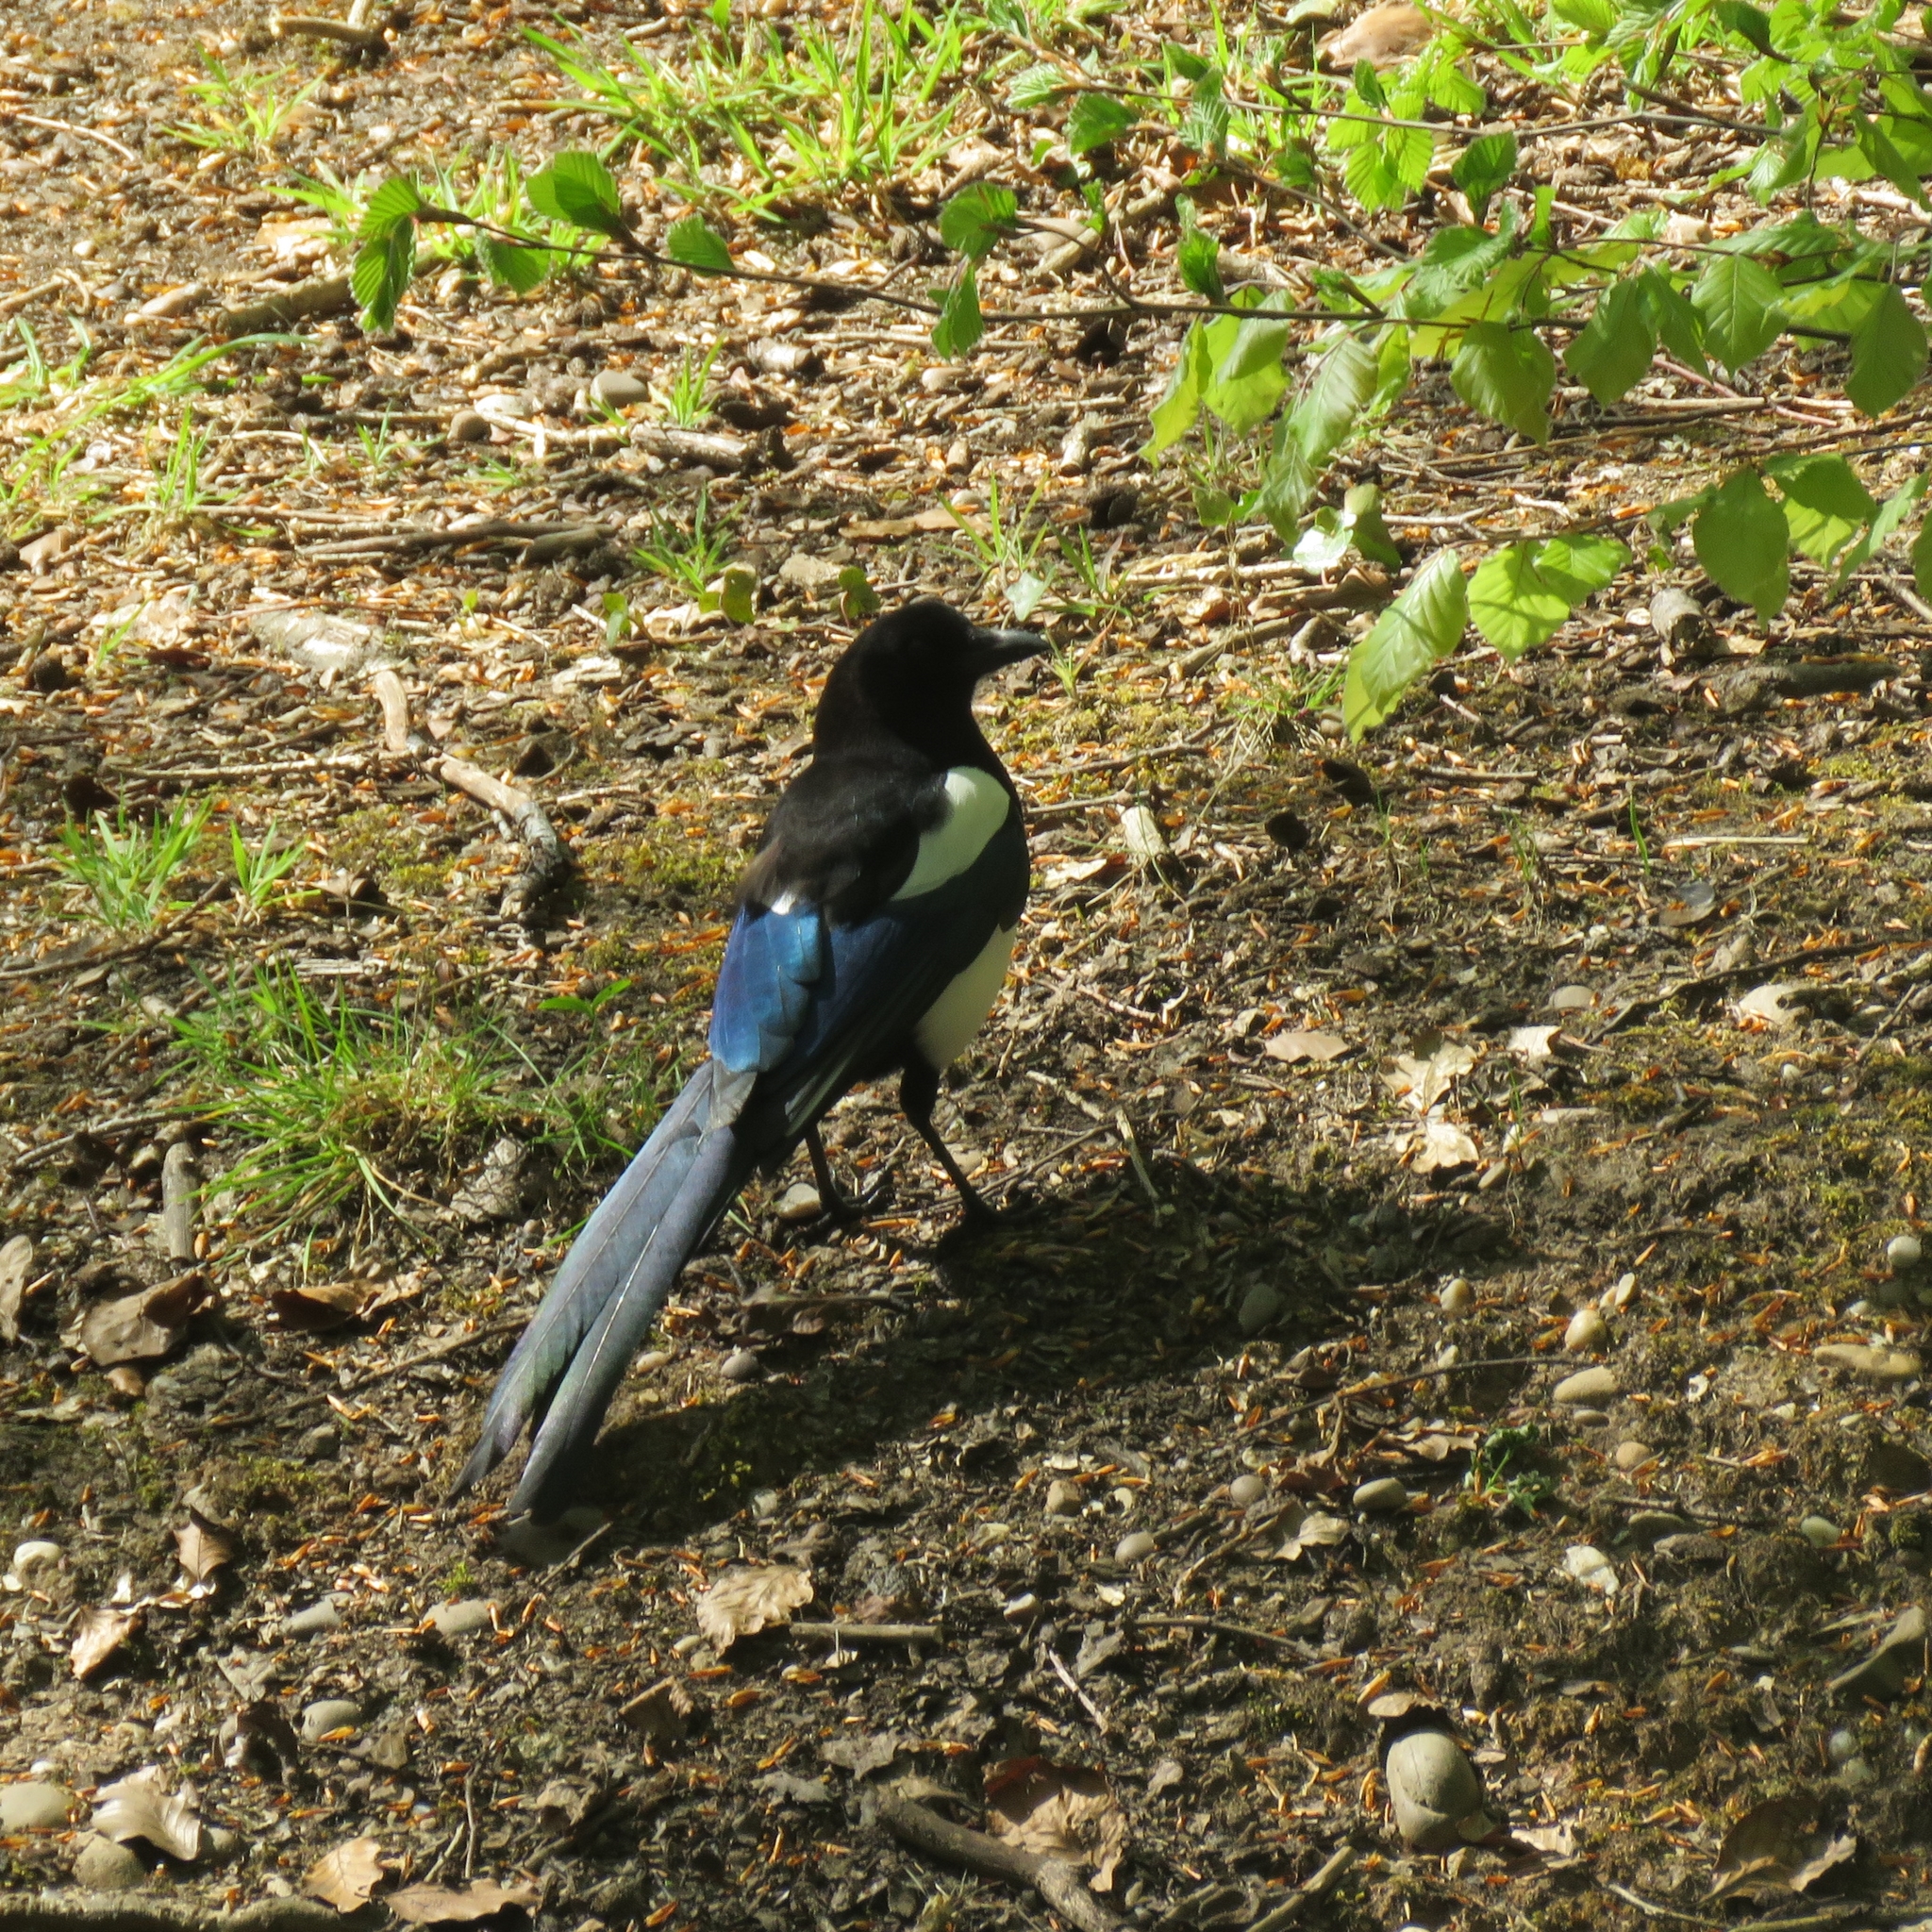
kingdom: Animalia
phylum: Chordata
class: Aves
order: Passeriformes
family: Corvidae
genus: Pica
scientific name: Pica pica
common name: Eurasian magpie
